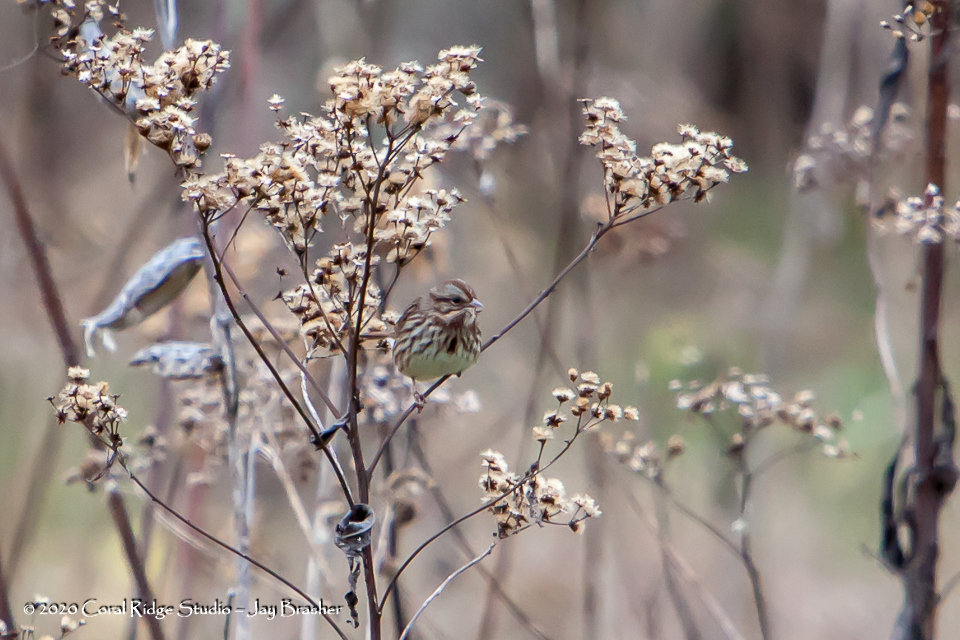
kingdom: Animalia
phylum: Chordata
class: Aves
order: Passeriformes
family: Passerellidae
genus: Melospiza
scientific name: Melospiza melodia
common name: Song sparrow
